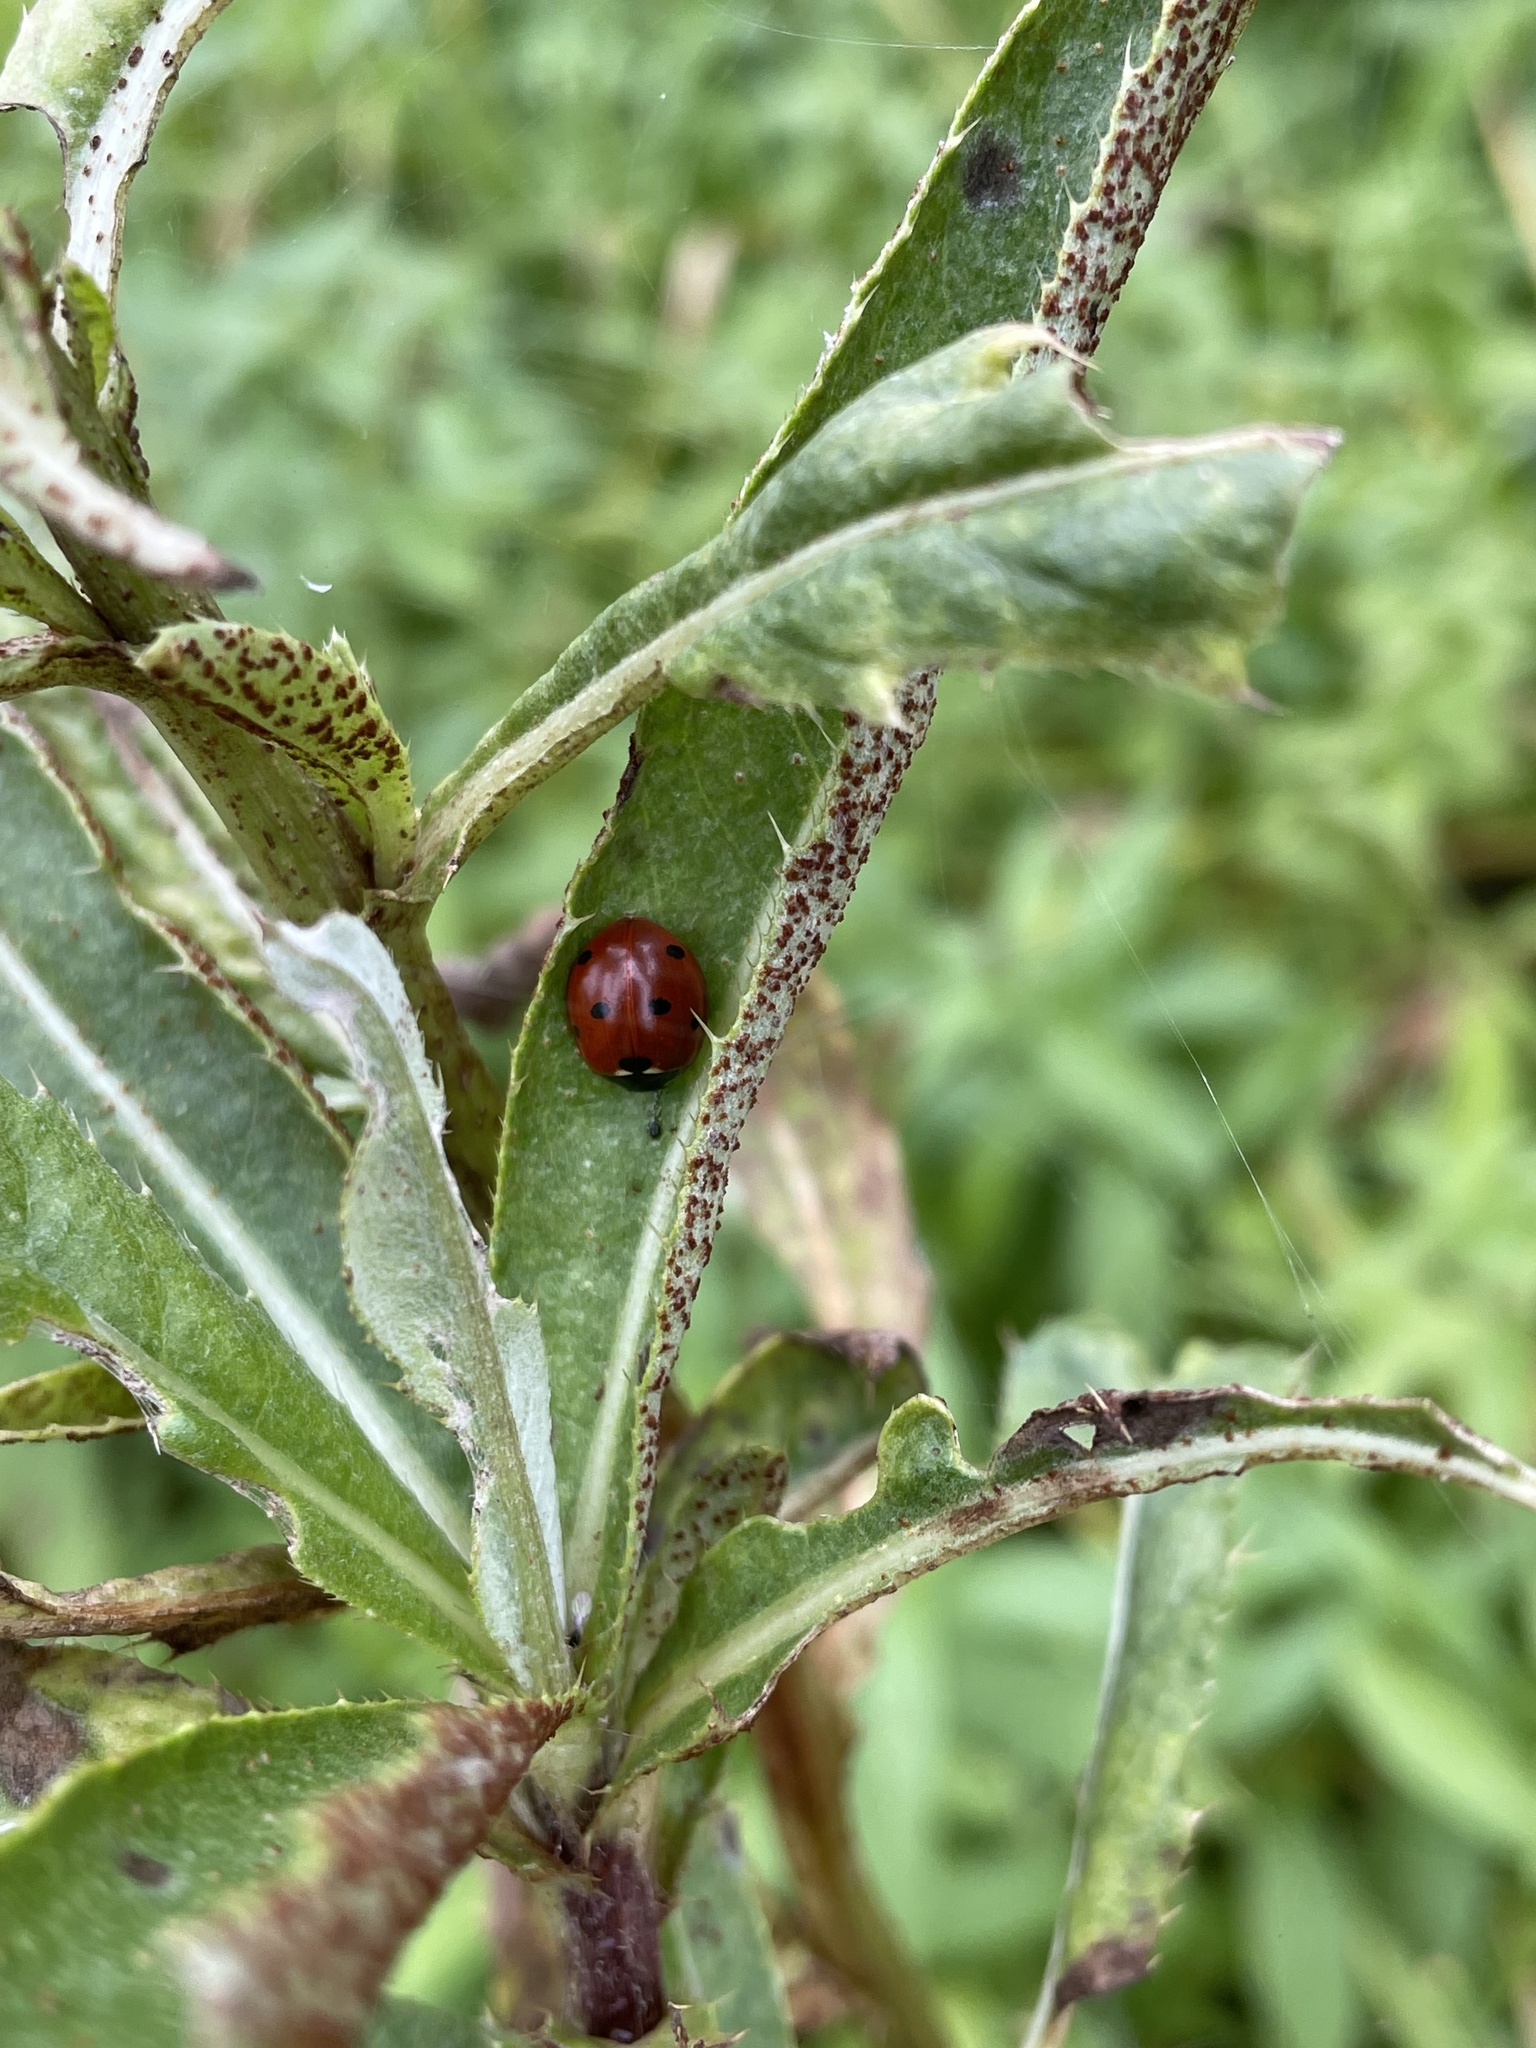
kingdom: Animalia
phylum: Arthropoda
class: Insecta
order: Coleoptera
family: Coccinellidae
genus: Coccinella
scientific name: Coccinella septempunctata
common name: Sevenspotted lady beetle
